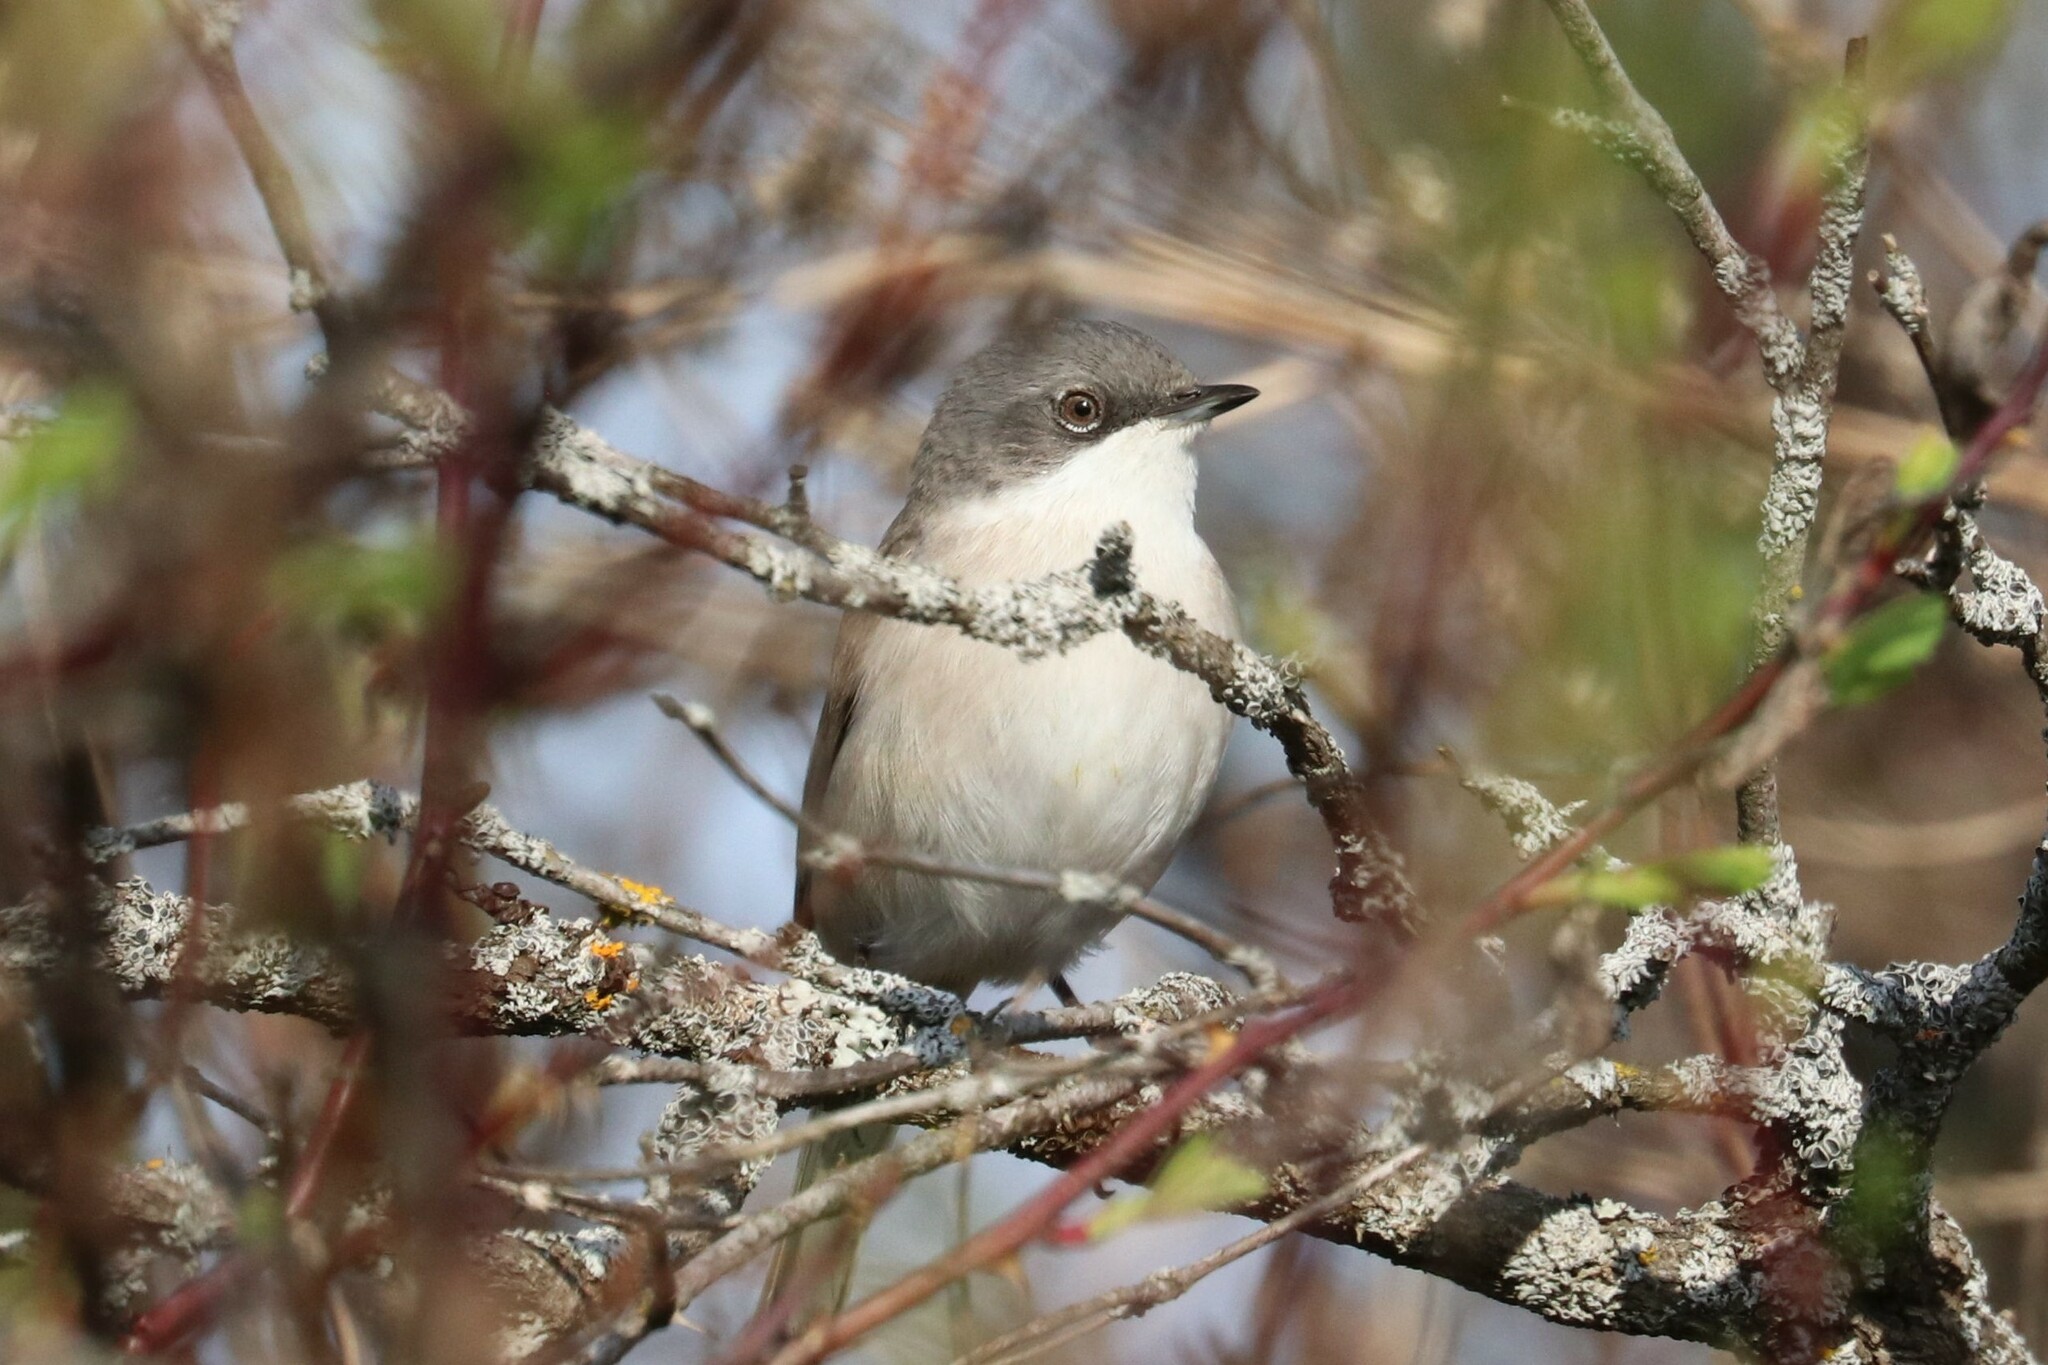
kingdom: Animalia
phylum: Chordata
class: Aves
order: Passeriformes
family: Sylviidae
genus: Sylvia
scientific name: Sylvia curruca
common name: Lesser whitethroat
